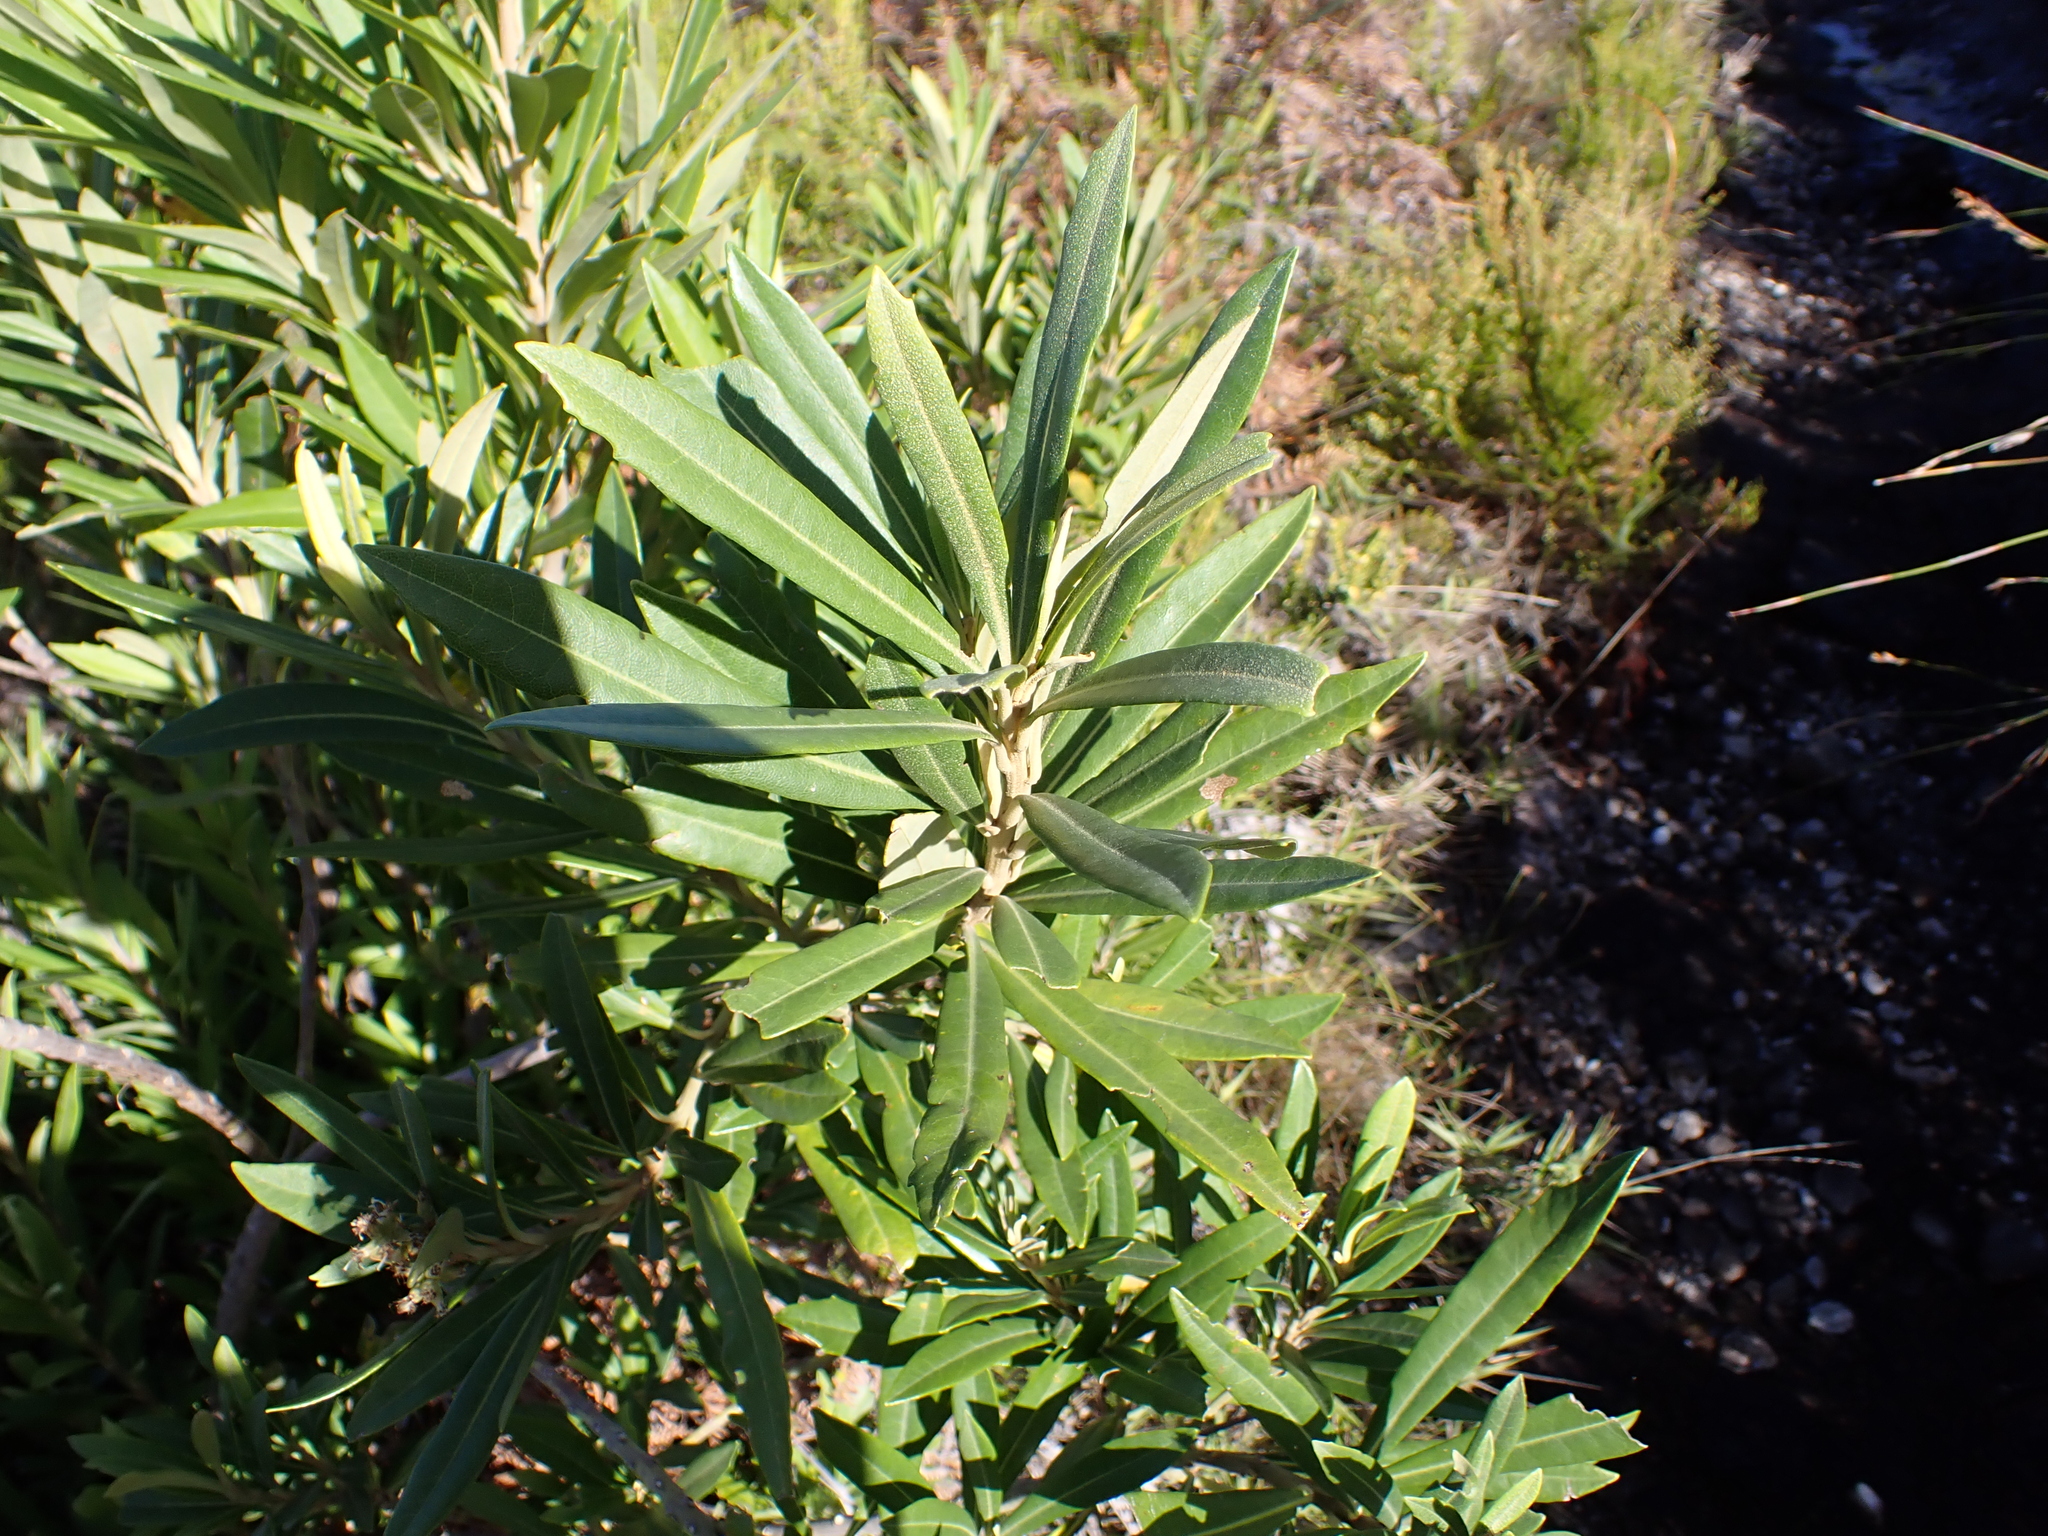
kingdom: Plantae
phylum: Tracheophyta
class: Magnoliopsida
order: Asterales
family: Asteraceae
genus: Brachylaena
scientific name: Brachylaena neriifolia
